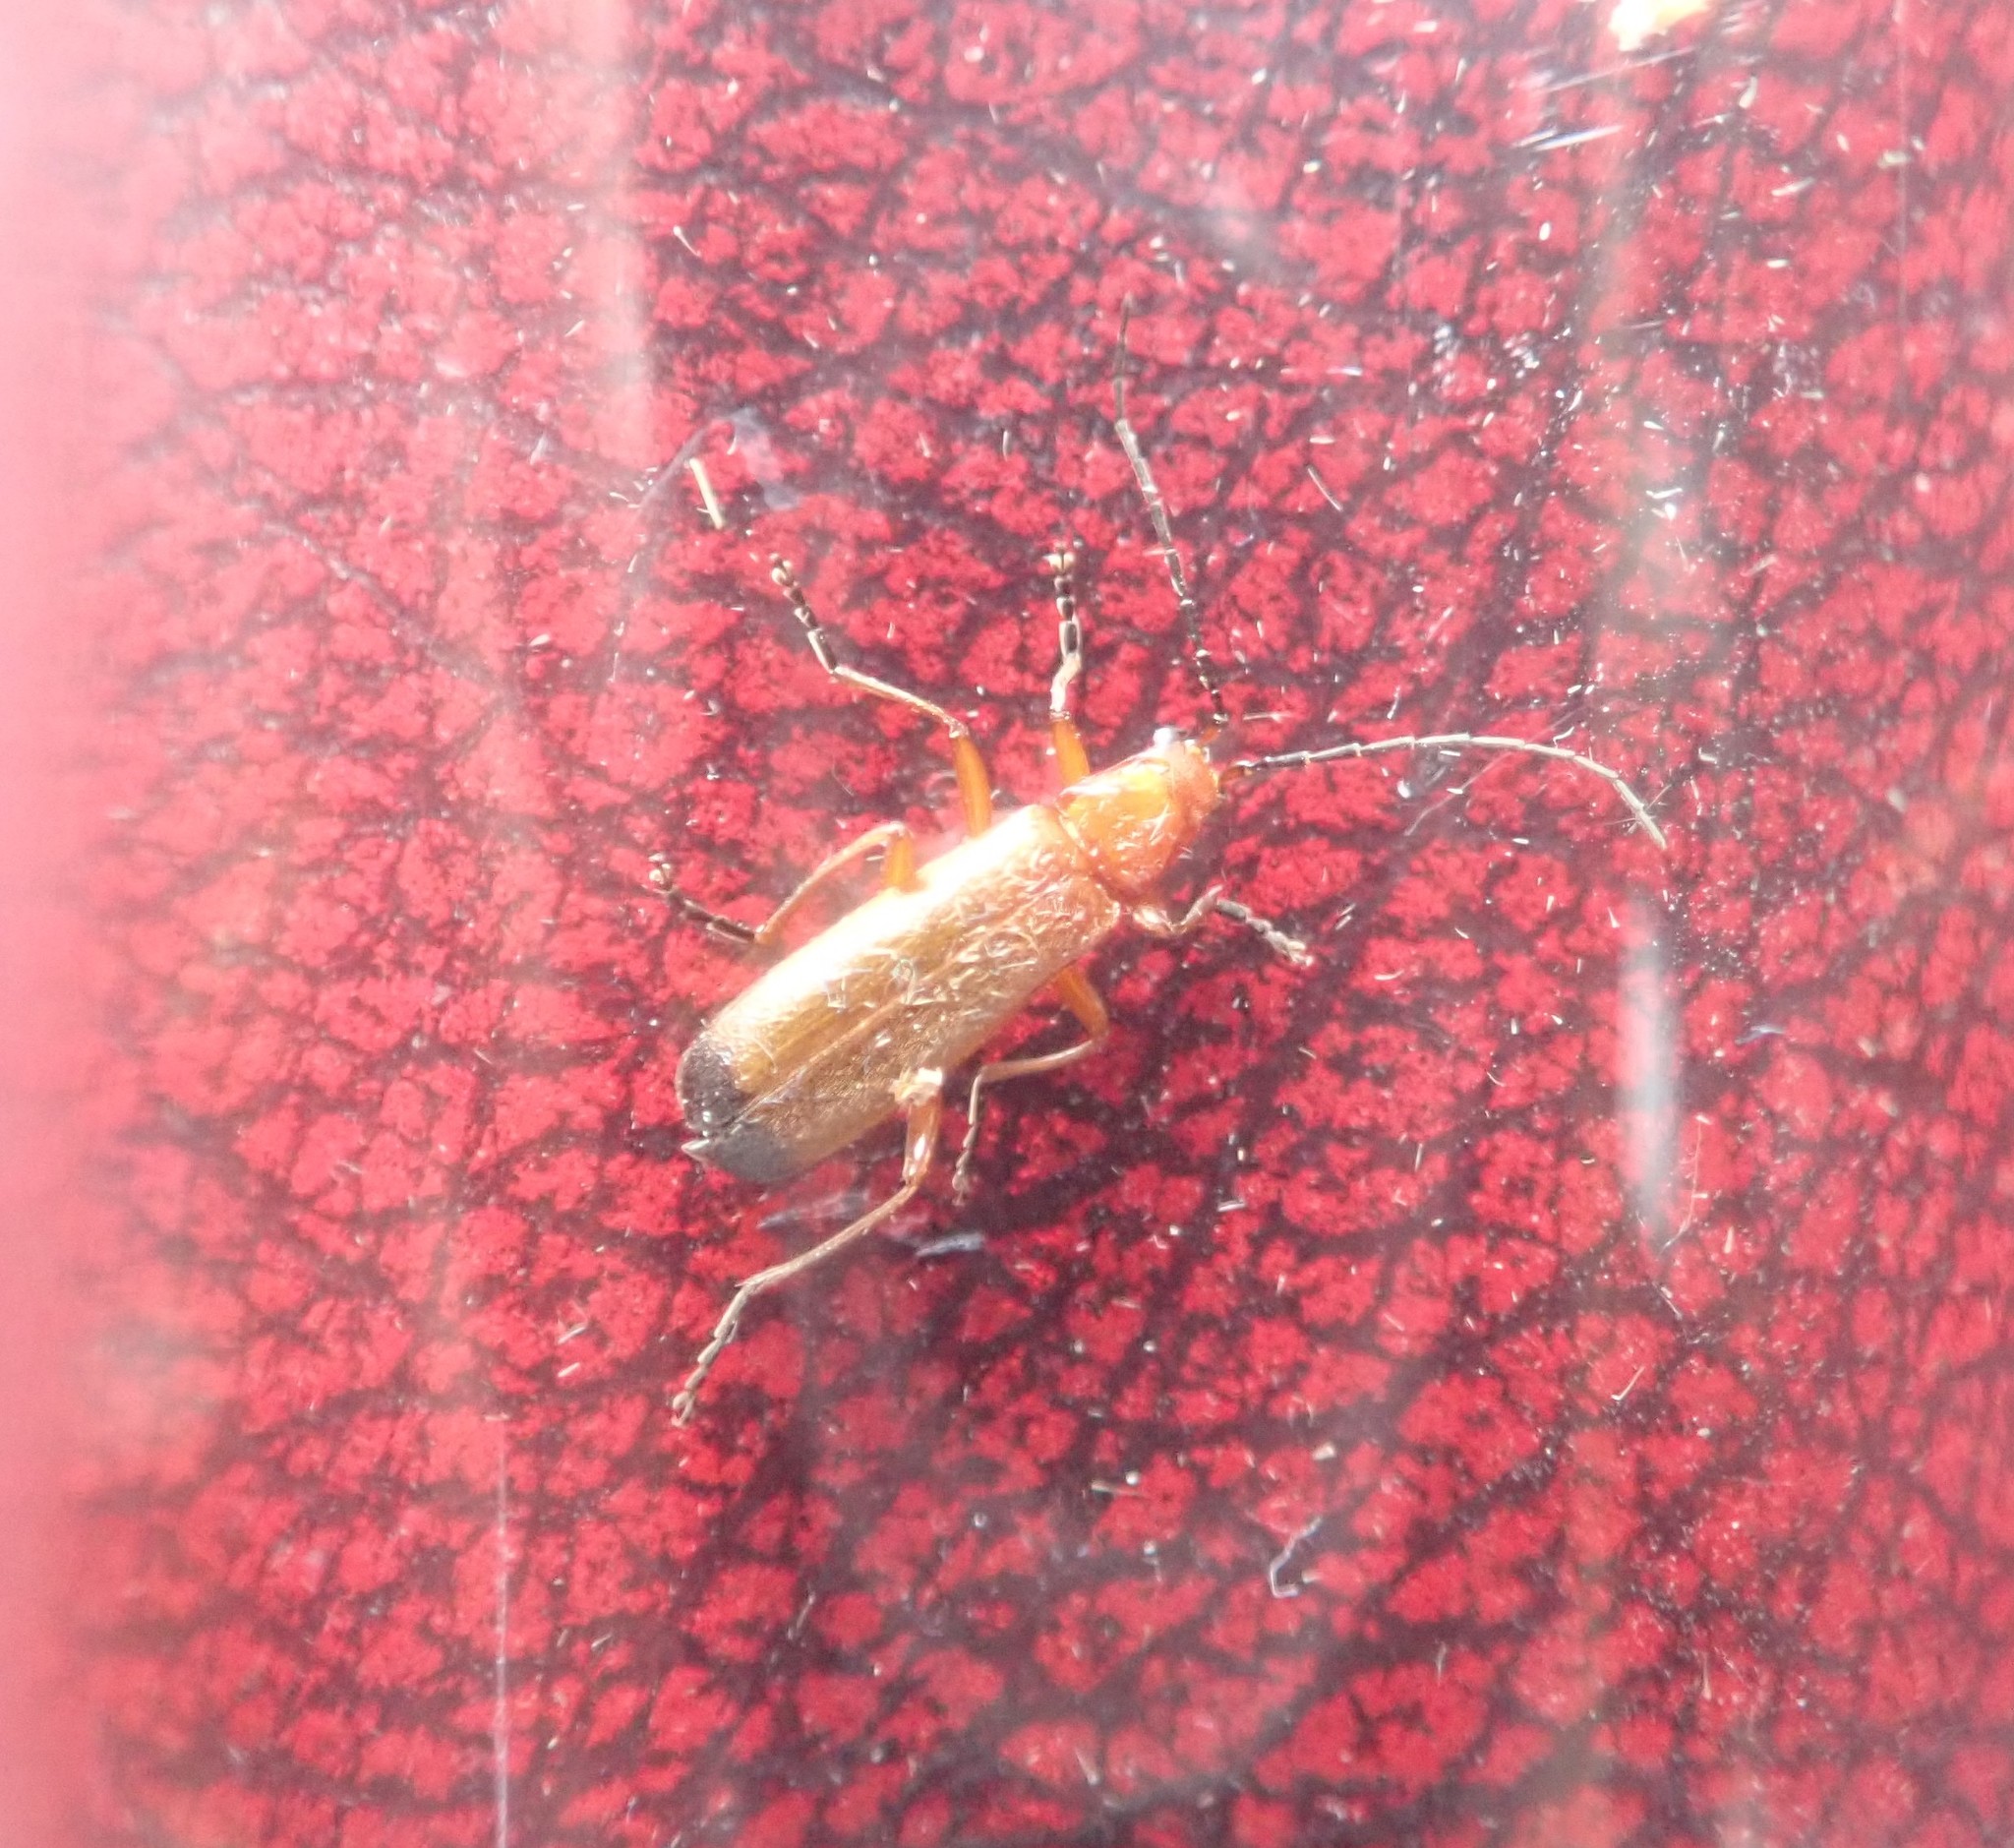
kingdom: Animalia
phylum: Arthropoda
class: Insecta
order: Coleoptera
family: Cantharidae
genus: Rhagonycha
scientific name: Rhagonycha fulva
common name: Common red soldier beetle
